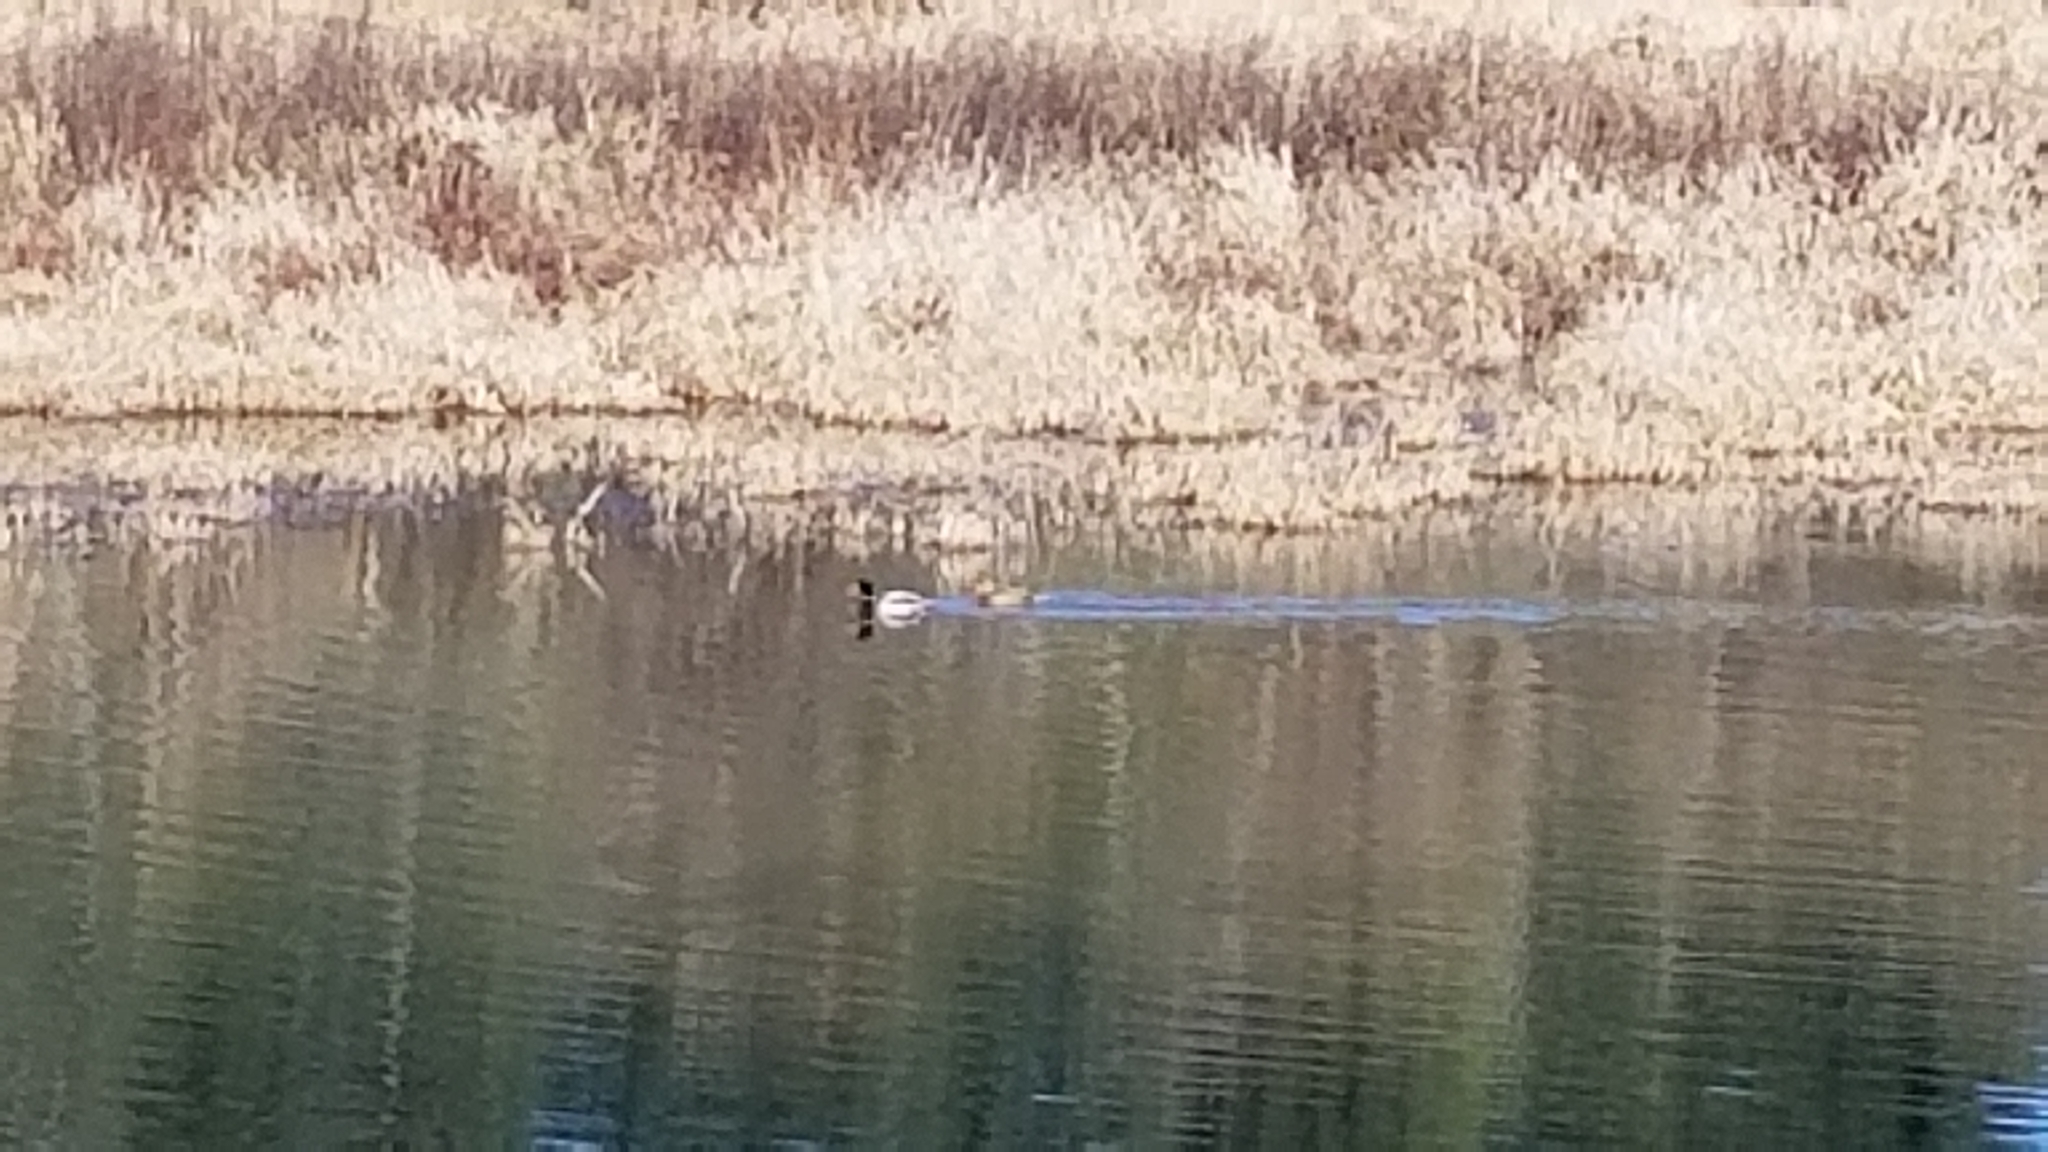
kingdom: Animalia
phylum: Chordata
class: Aves
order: Anseriformes
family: Anatidae
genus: Anas
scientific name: Anas platyrhynchos
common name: Mallard
